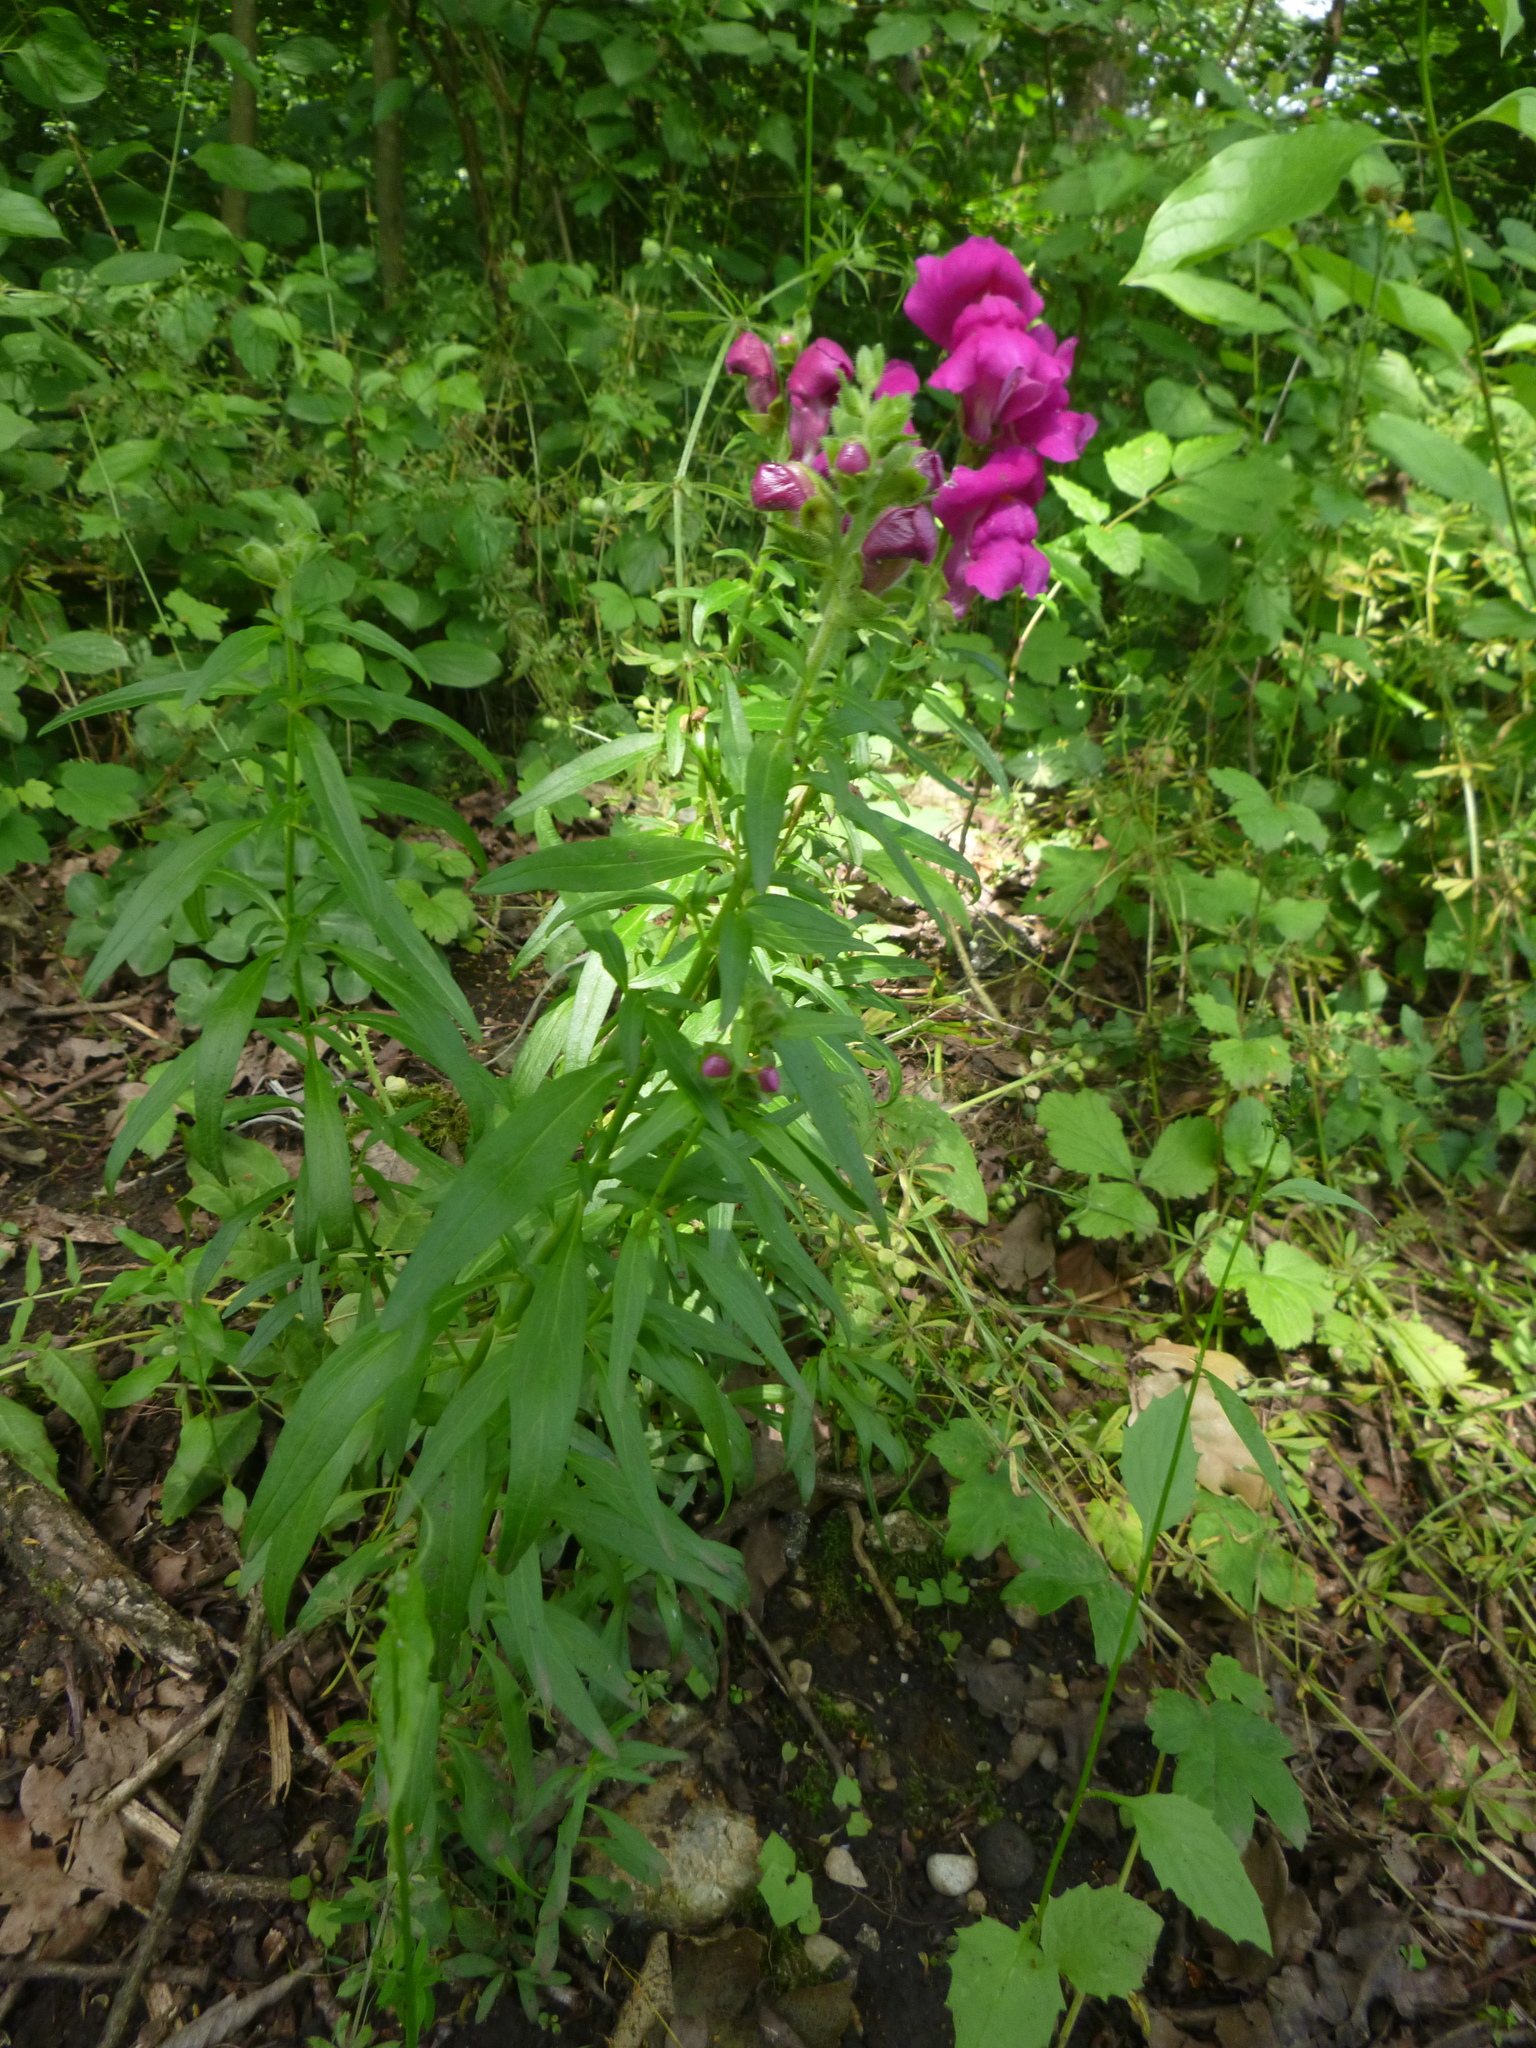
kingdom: Plantae
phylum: Tracheophyta
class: Magnoliopsida
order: Lamiales
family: Plantaginaceae
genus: Antirrhinum
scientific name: Antirrhinum majus
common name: Snapdragon
